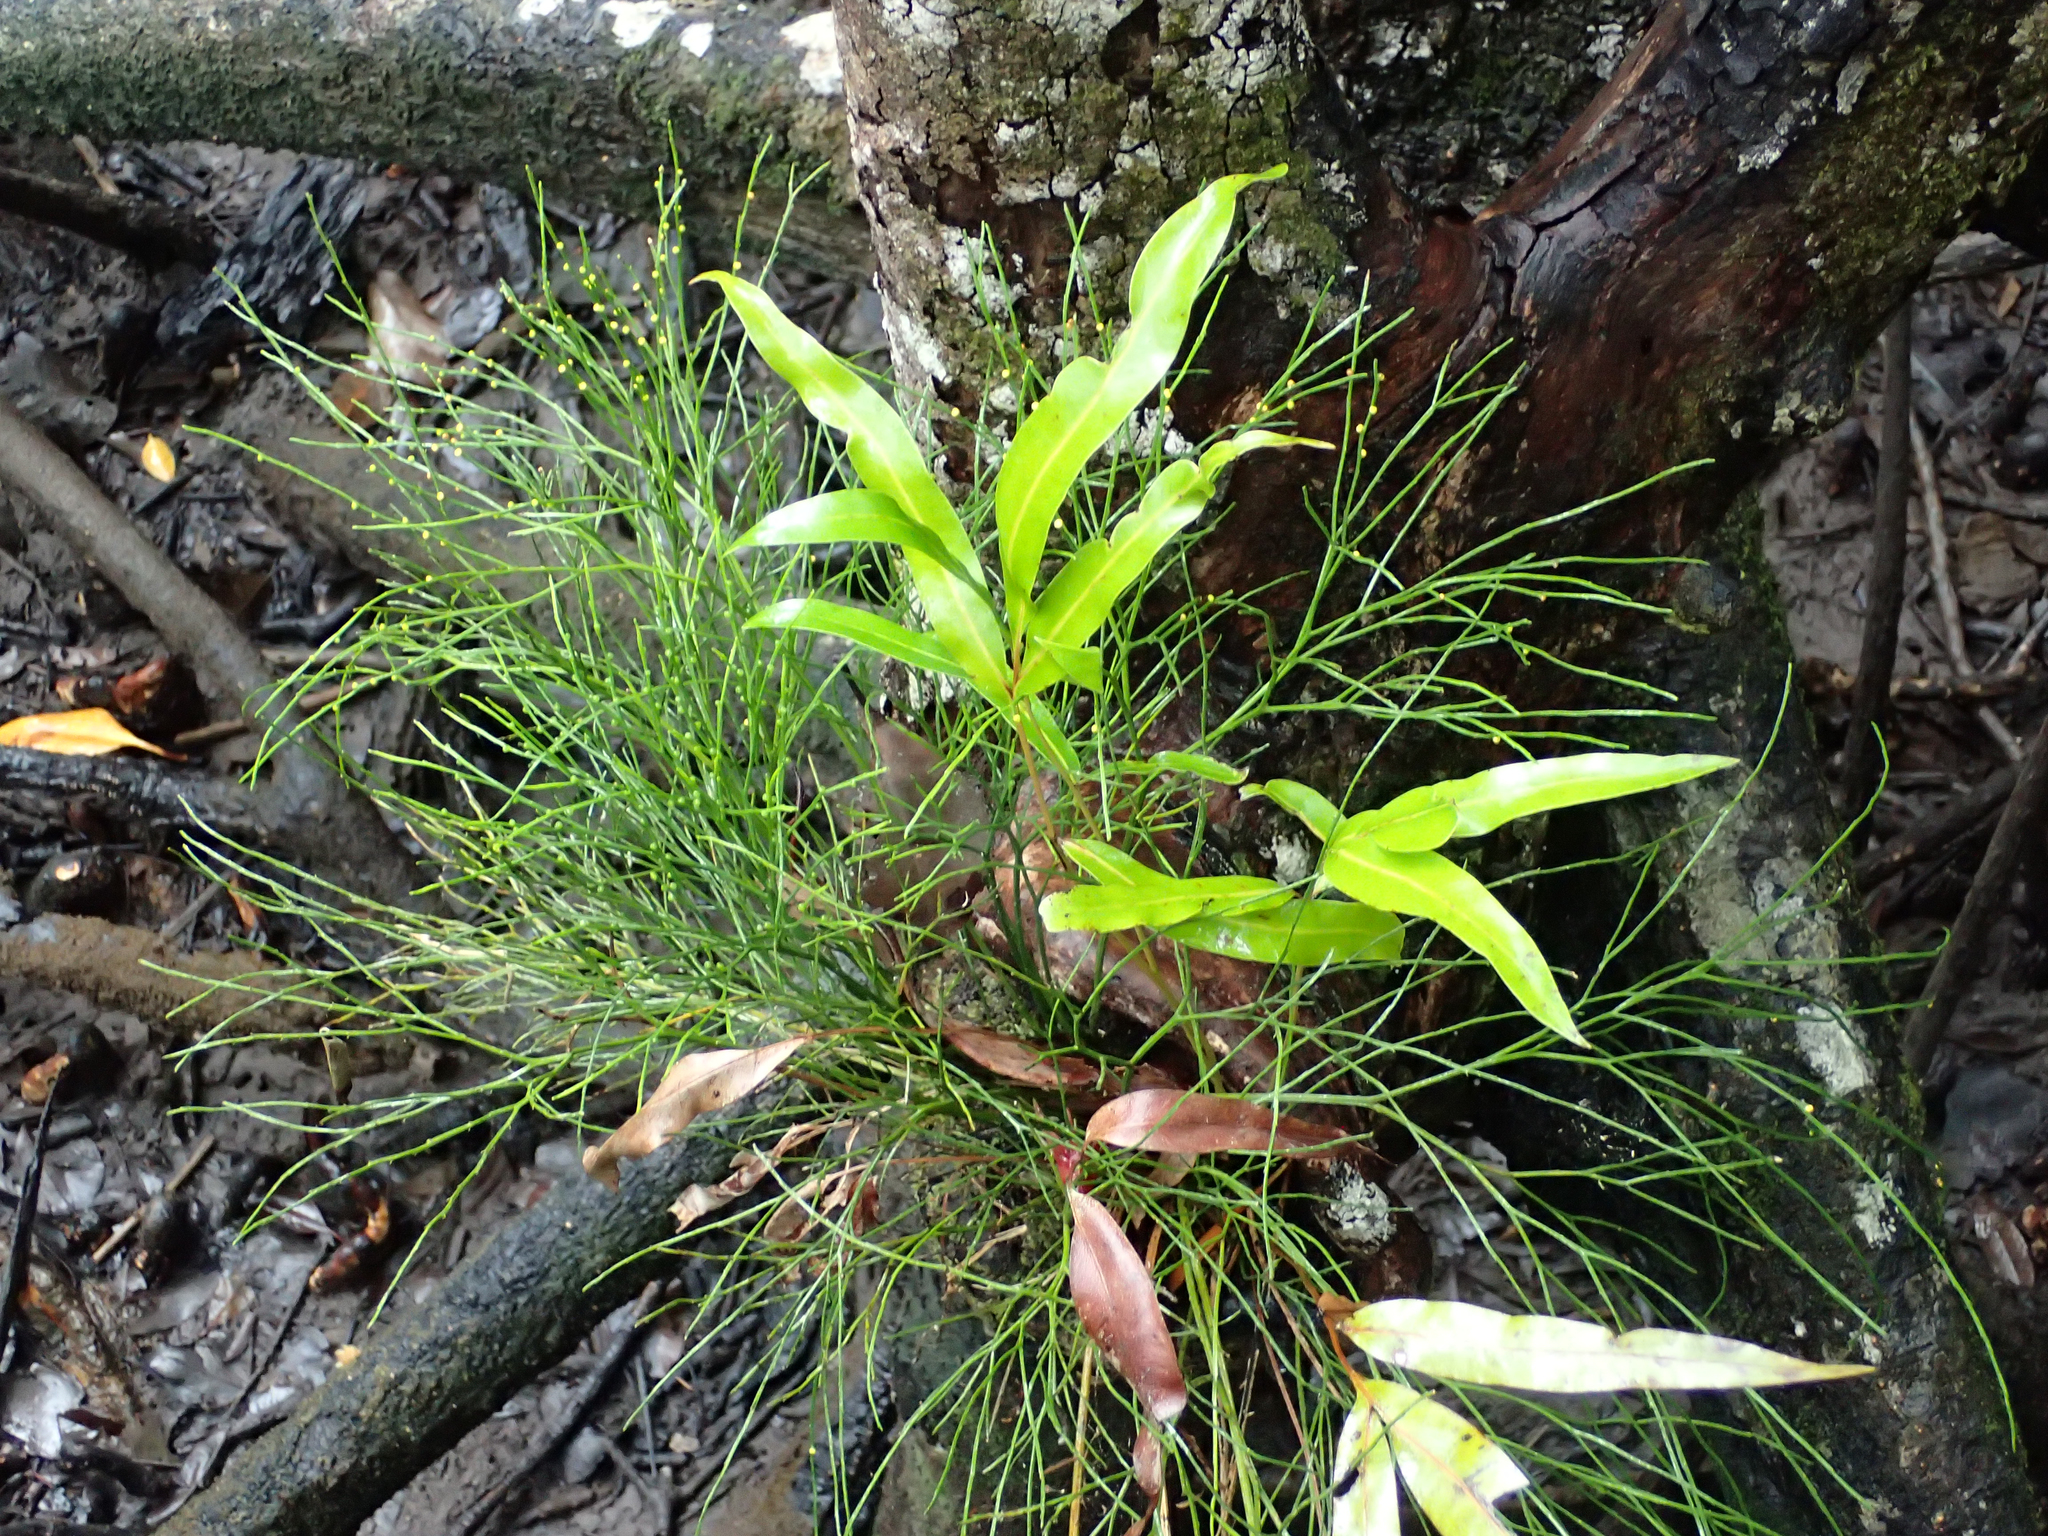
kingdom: Plantae
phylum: Tracheophyta
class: Polypodiopsida
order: Psilotales
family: Psilotaceae
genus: Psilotum
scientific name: Psilotum nudum
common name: Skeleton fork fern
